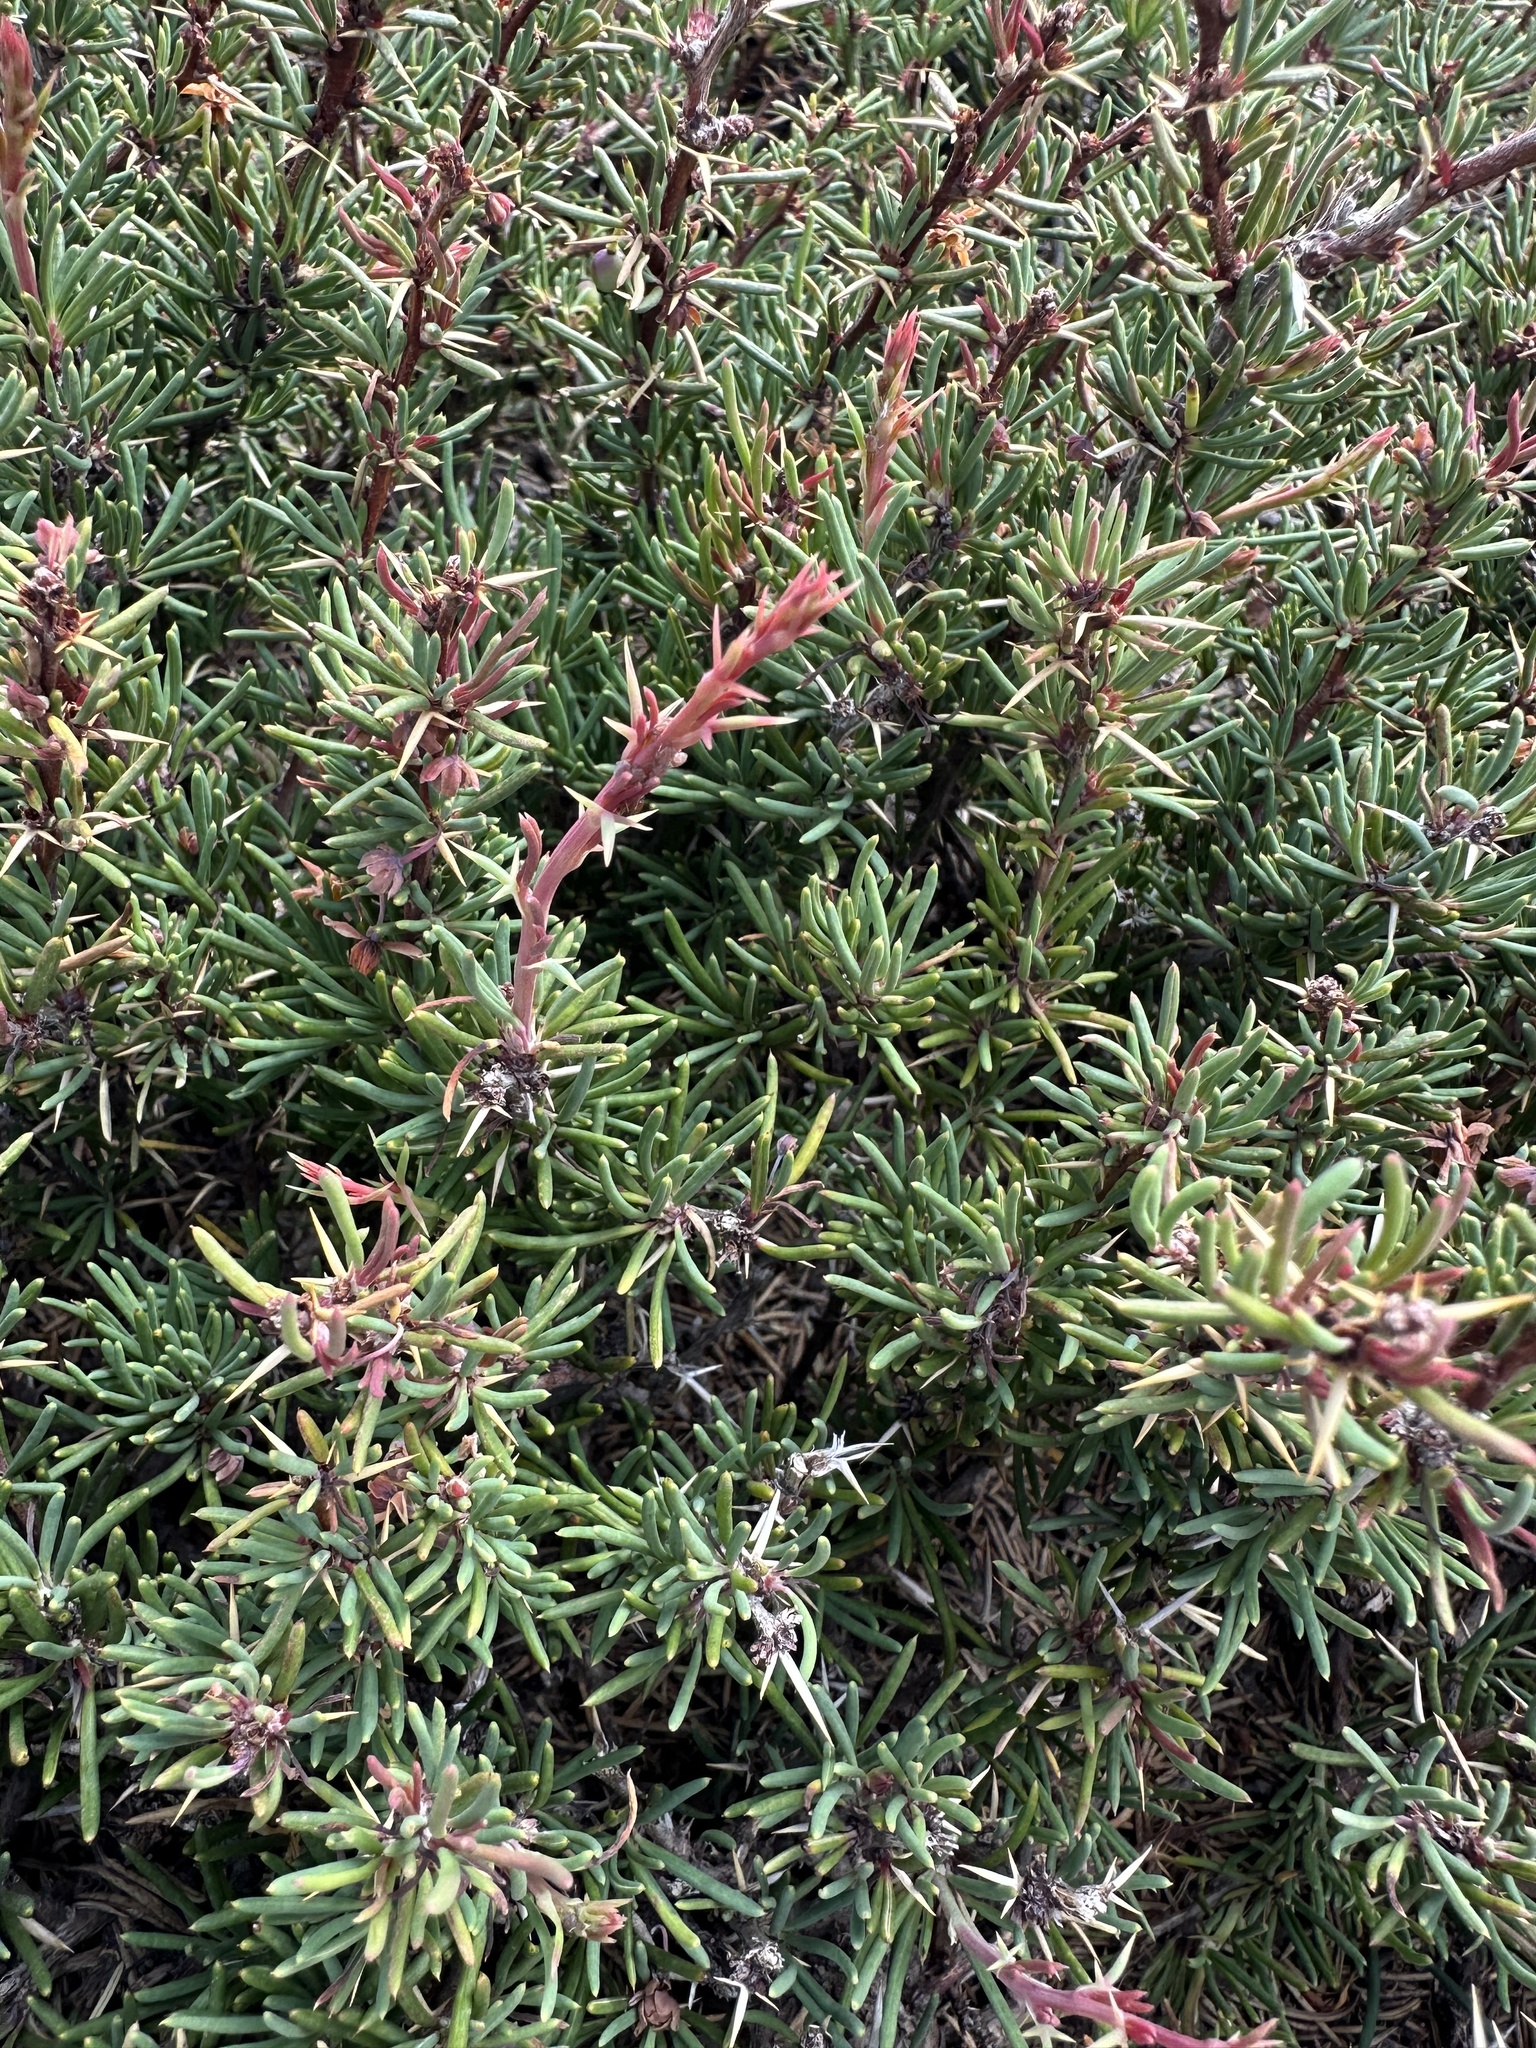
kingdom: Plantae
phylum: Tracheophyta
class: Magnoliopsida
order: Ranunculales
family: Berberidaceae
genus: Berberis
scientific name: Berberis empetrifolia
